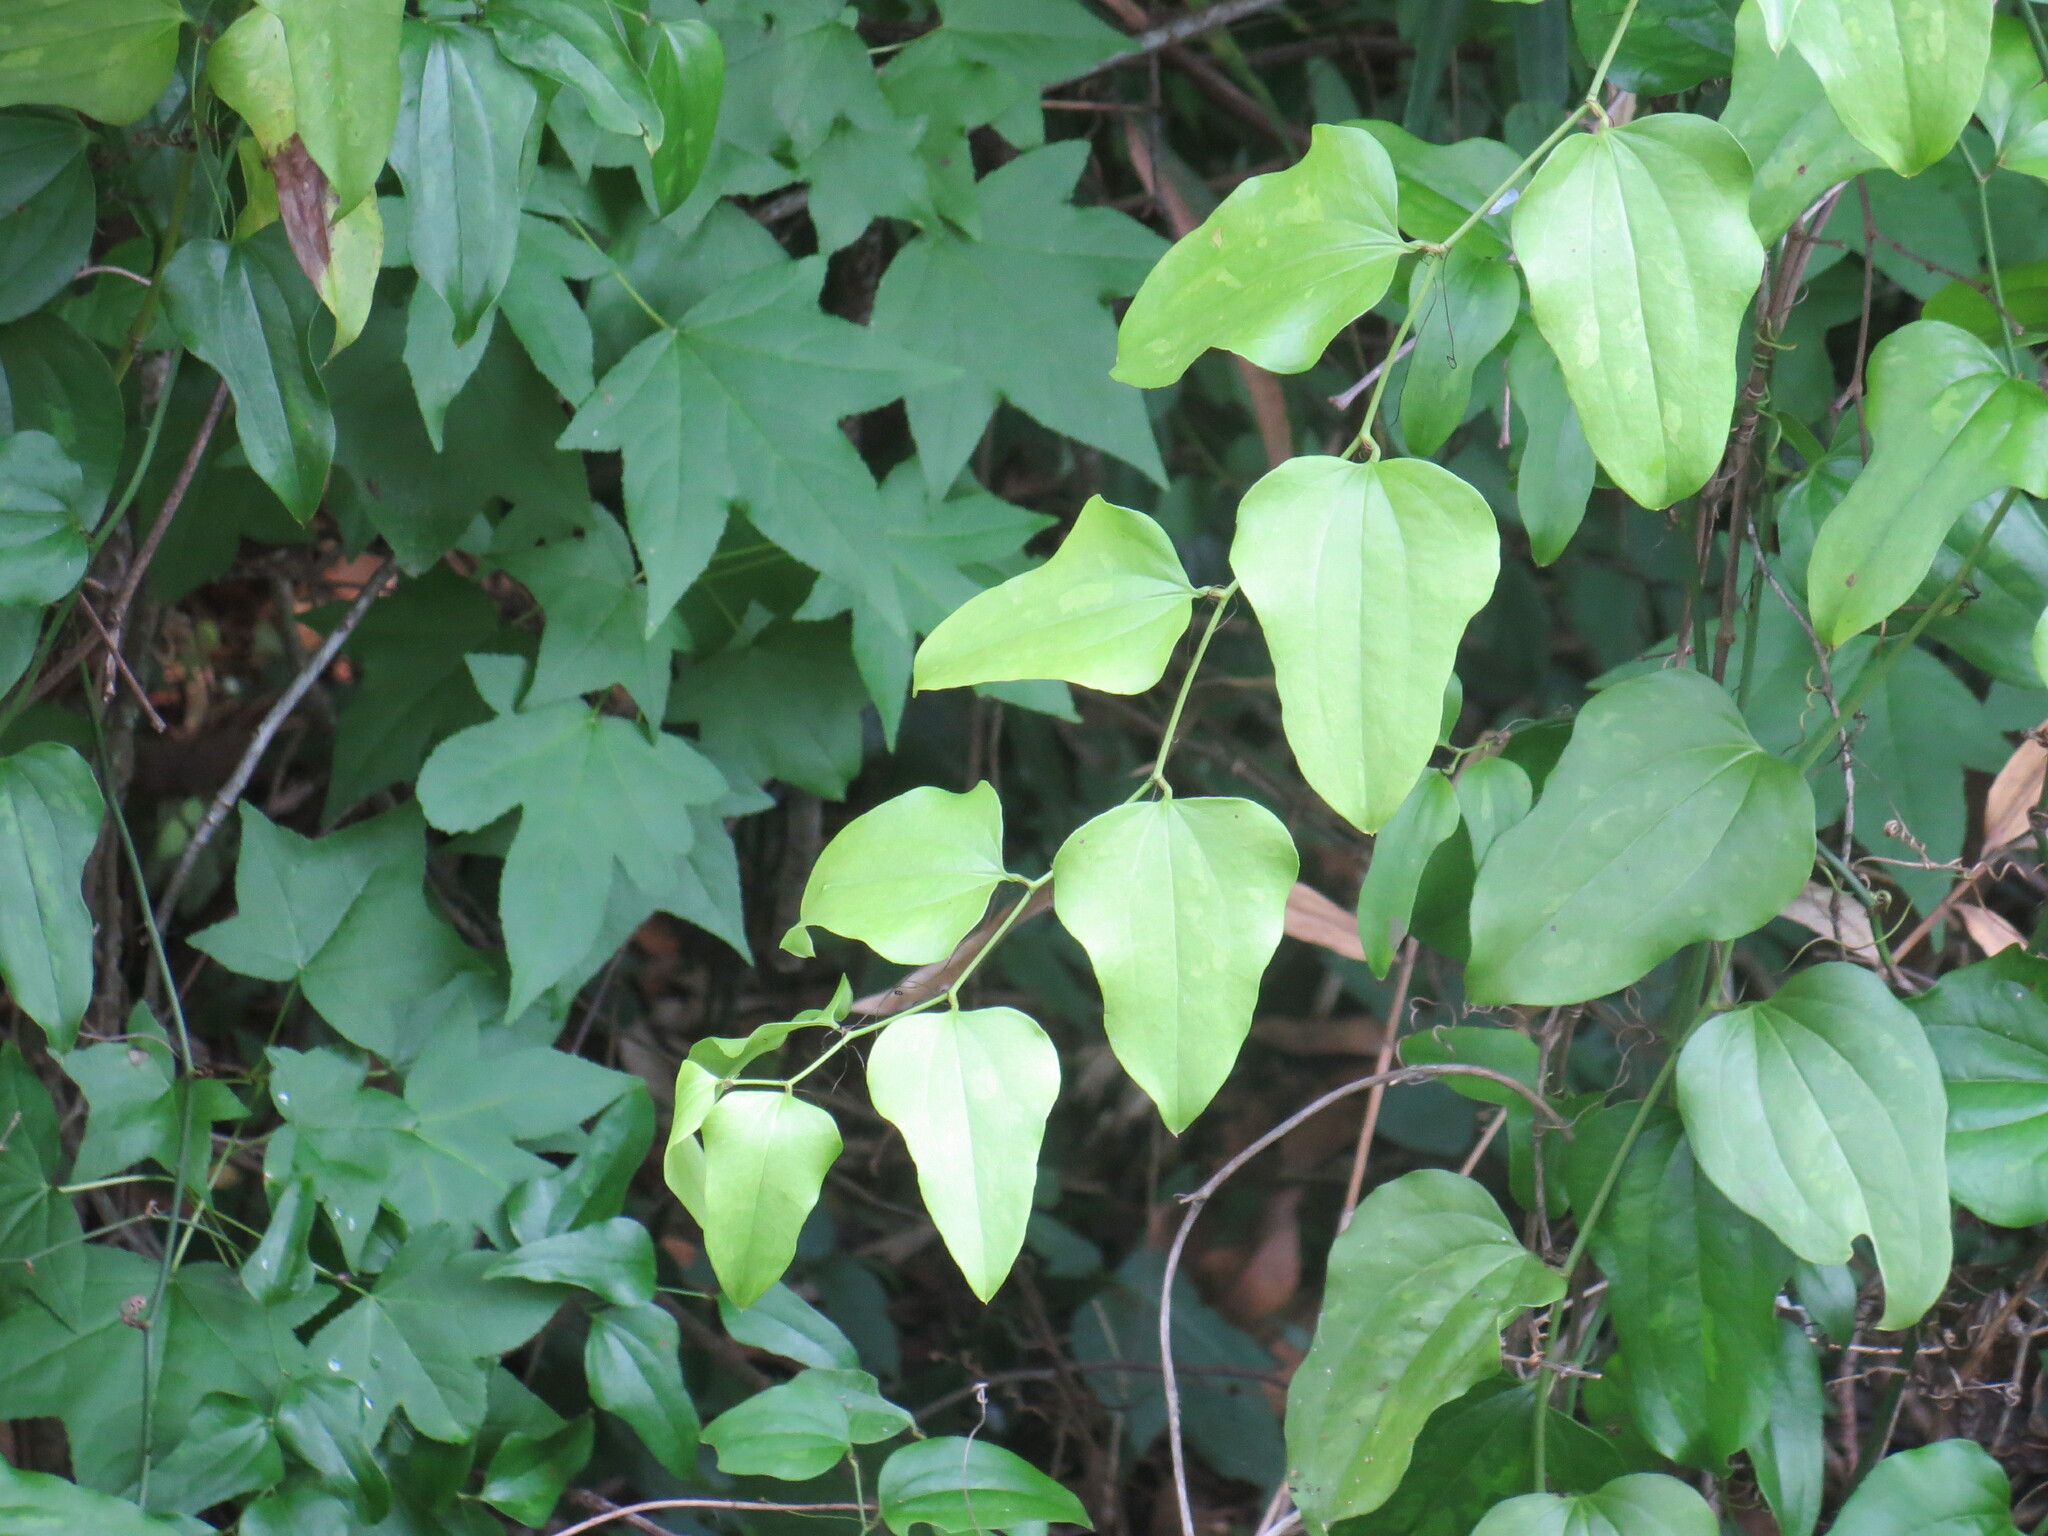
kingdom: Plantae
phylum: Tracheophyta
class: Liliopsida
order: Liliales
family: Smilacaceae
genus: Smilax
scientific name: Smilax tamnoides
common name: Hellfetter
